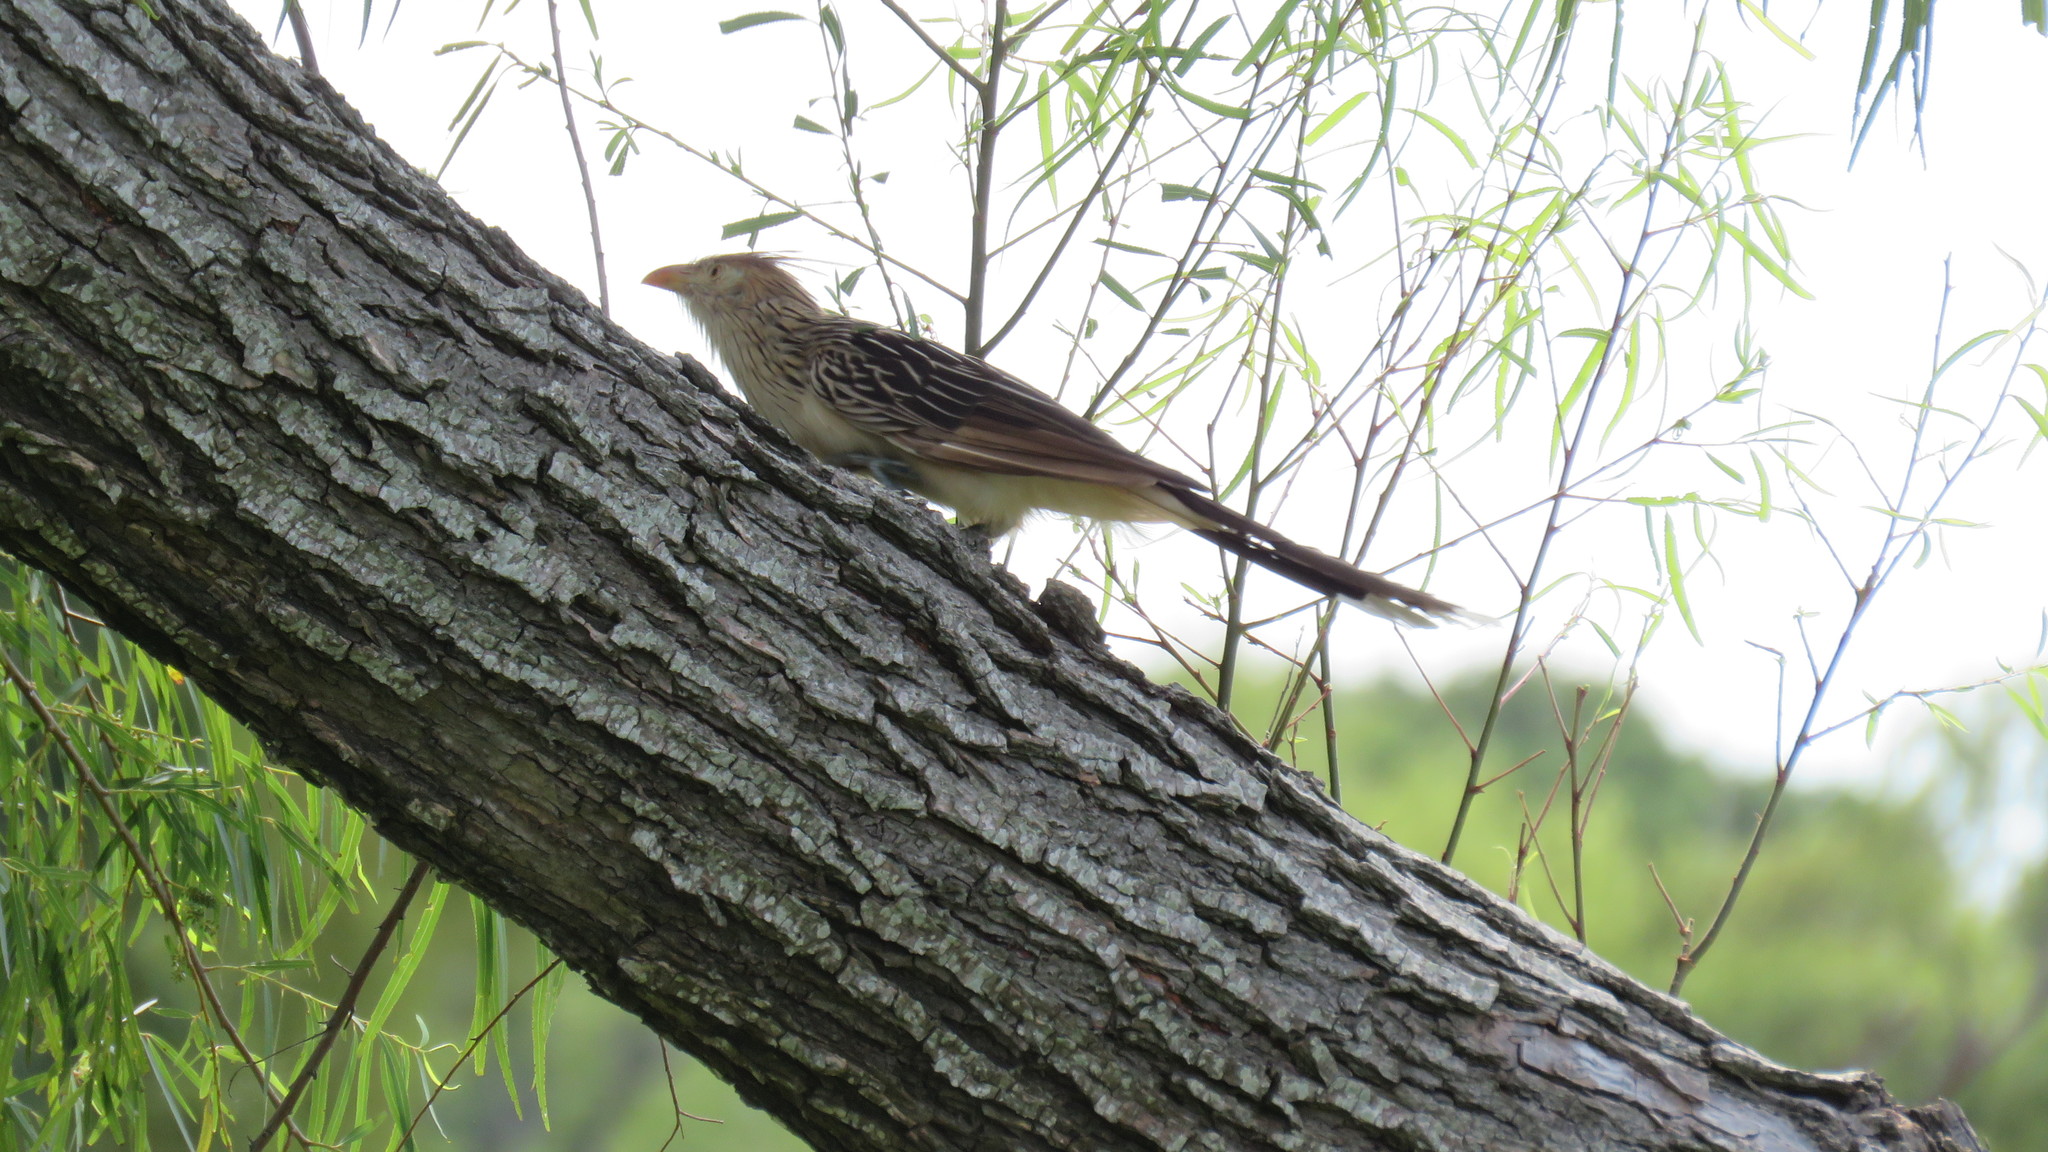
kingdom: Animalia
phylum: Chordata
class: Aves
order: Cuculiformes
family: Cuculidae
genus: Guira
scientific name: Guira guira
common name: Guira cuckoo
